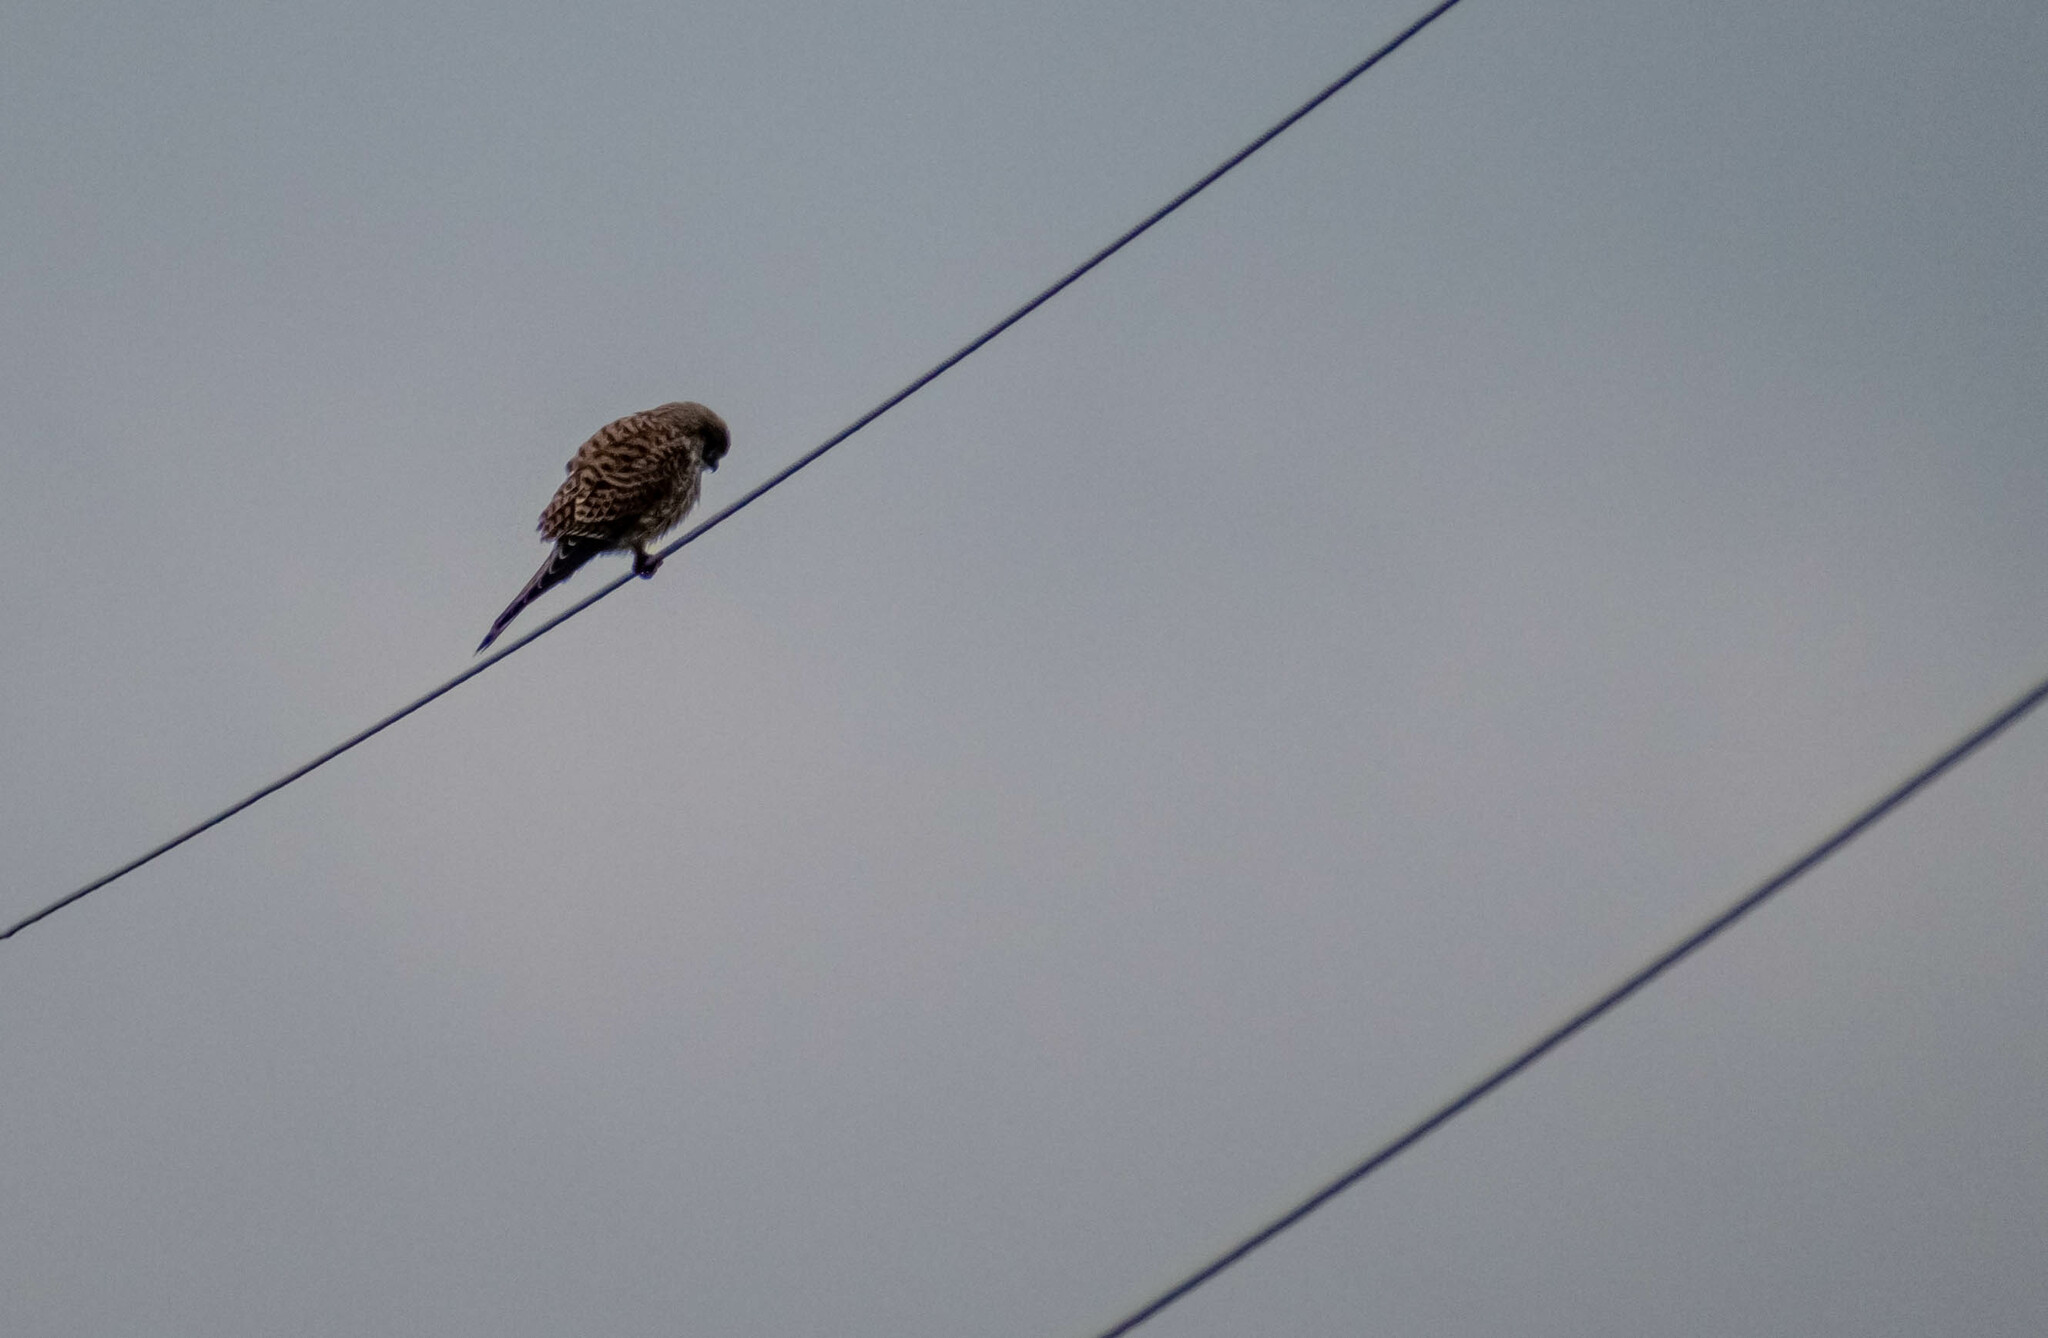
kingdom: Animalia
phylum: Chordata
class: Aves
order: Falconiformes
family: Falconidae
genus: Falco
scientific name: Falco tinnunculus
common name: Common kestrel
